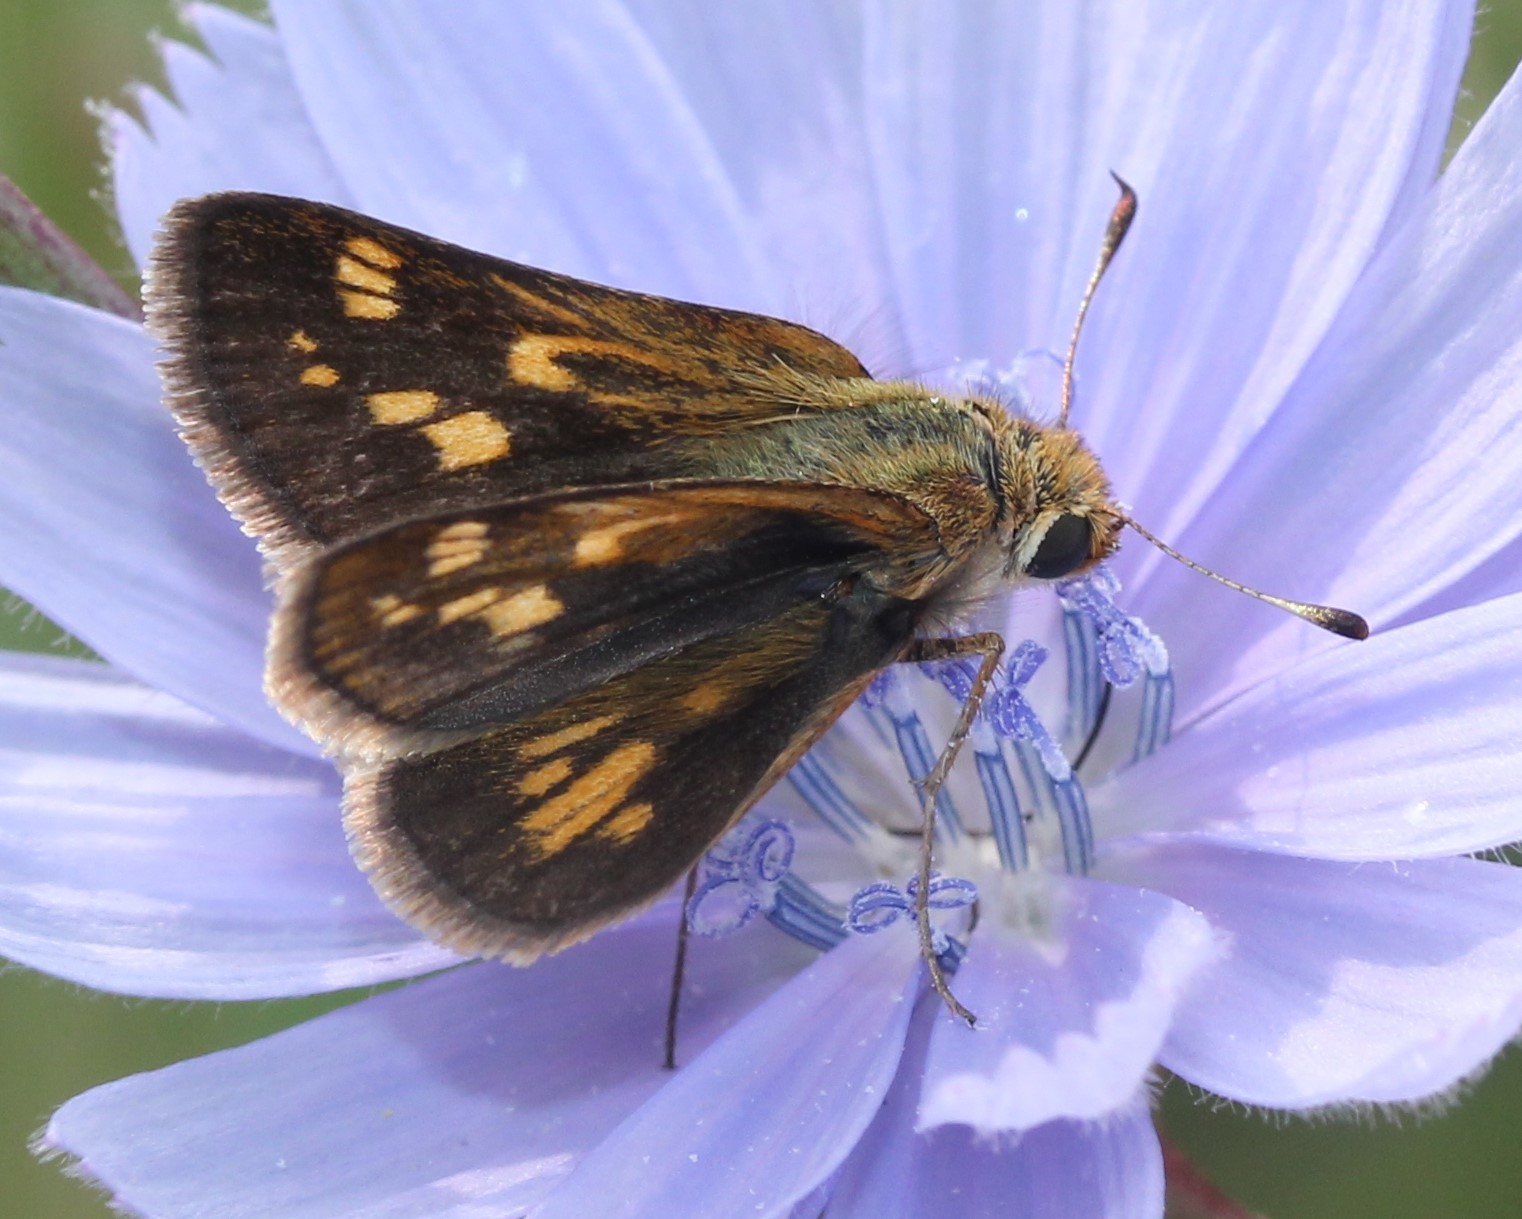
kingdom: Animalia
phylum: Arthropoda
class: Insecta
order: Lepidoptera
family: Hesperiidae
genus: Polites
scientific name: Polites coras
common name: Peck's skipper
